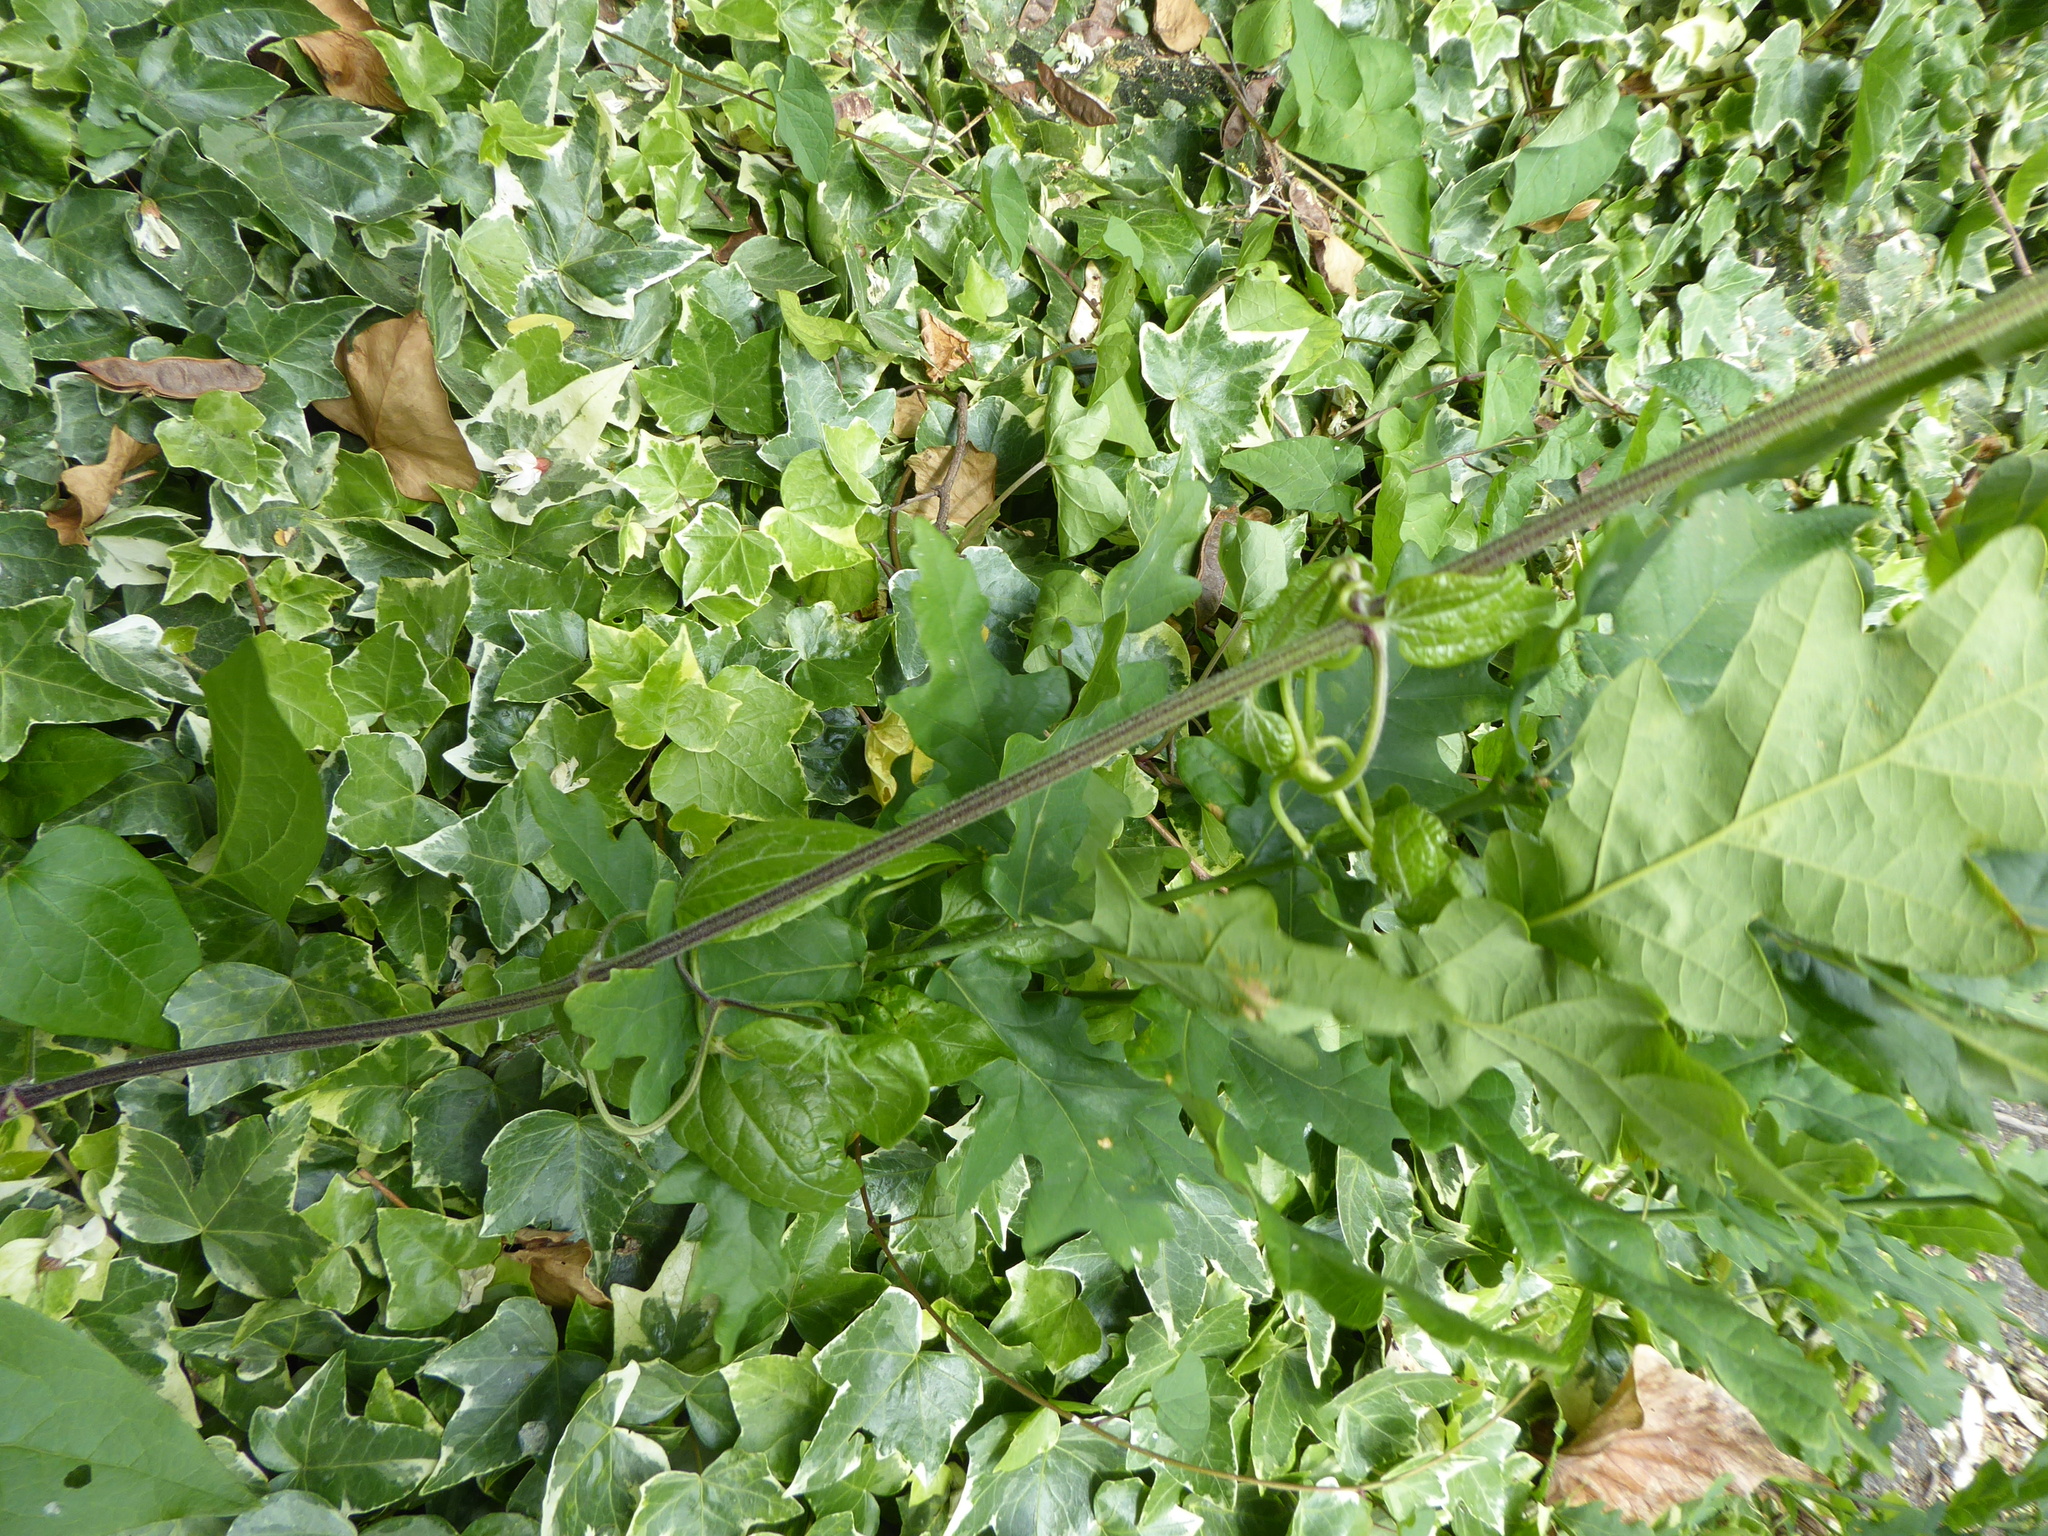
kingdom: Plantae
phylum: Tracheophyta
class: Magnoliopsida
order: Ranunculales
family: Ranunculaceae
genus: Clematis
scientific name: Clematis vitalba
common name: Evergreen clematis
